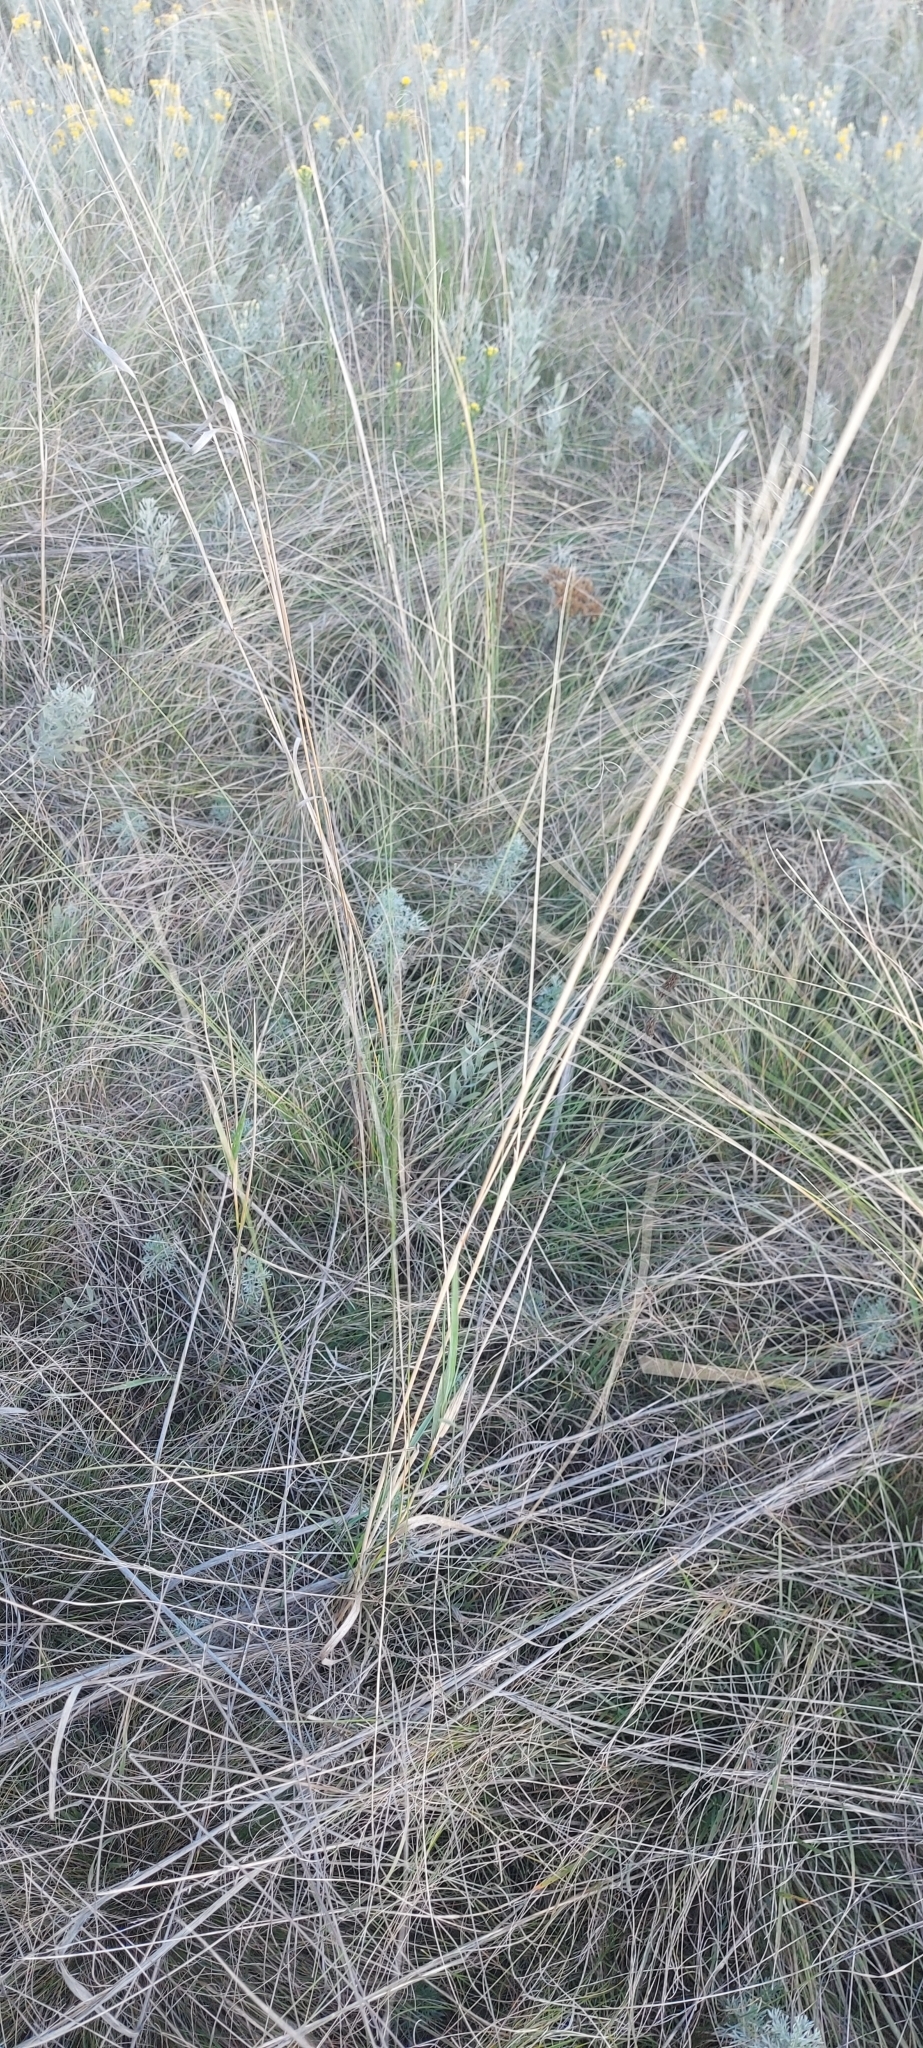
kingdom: Plantae
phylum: Tracheophyta
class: Liliopsida
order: Poales
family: Poaceae
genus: Stipa
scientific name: Stipa capillata
